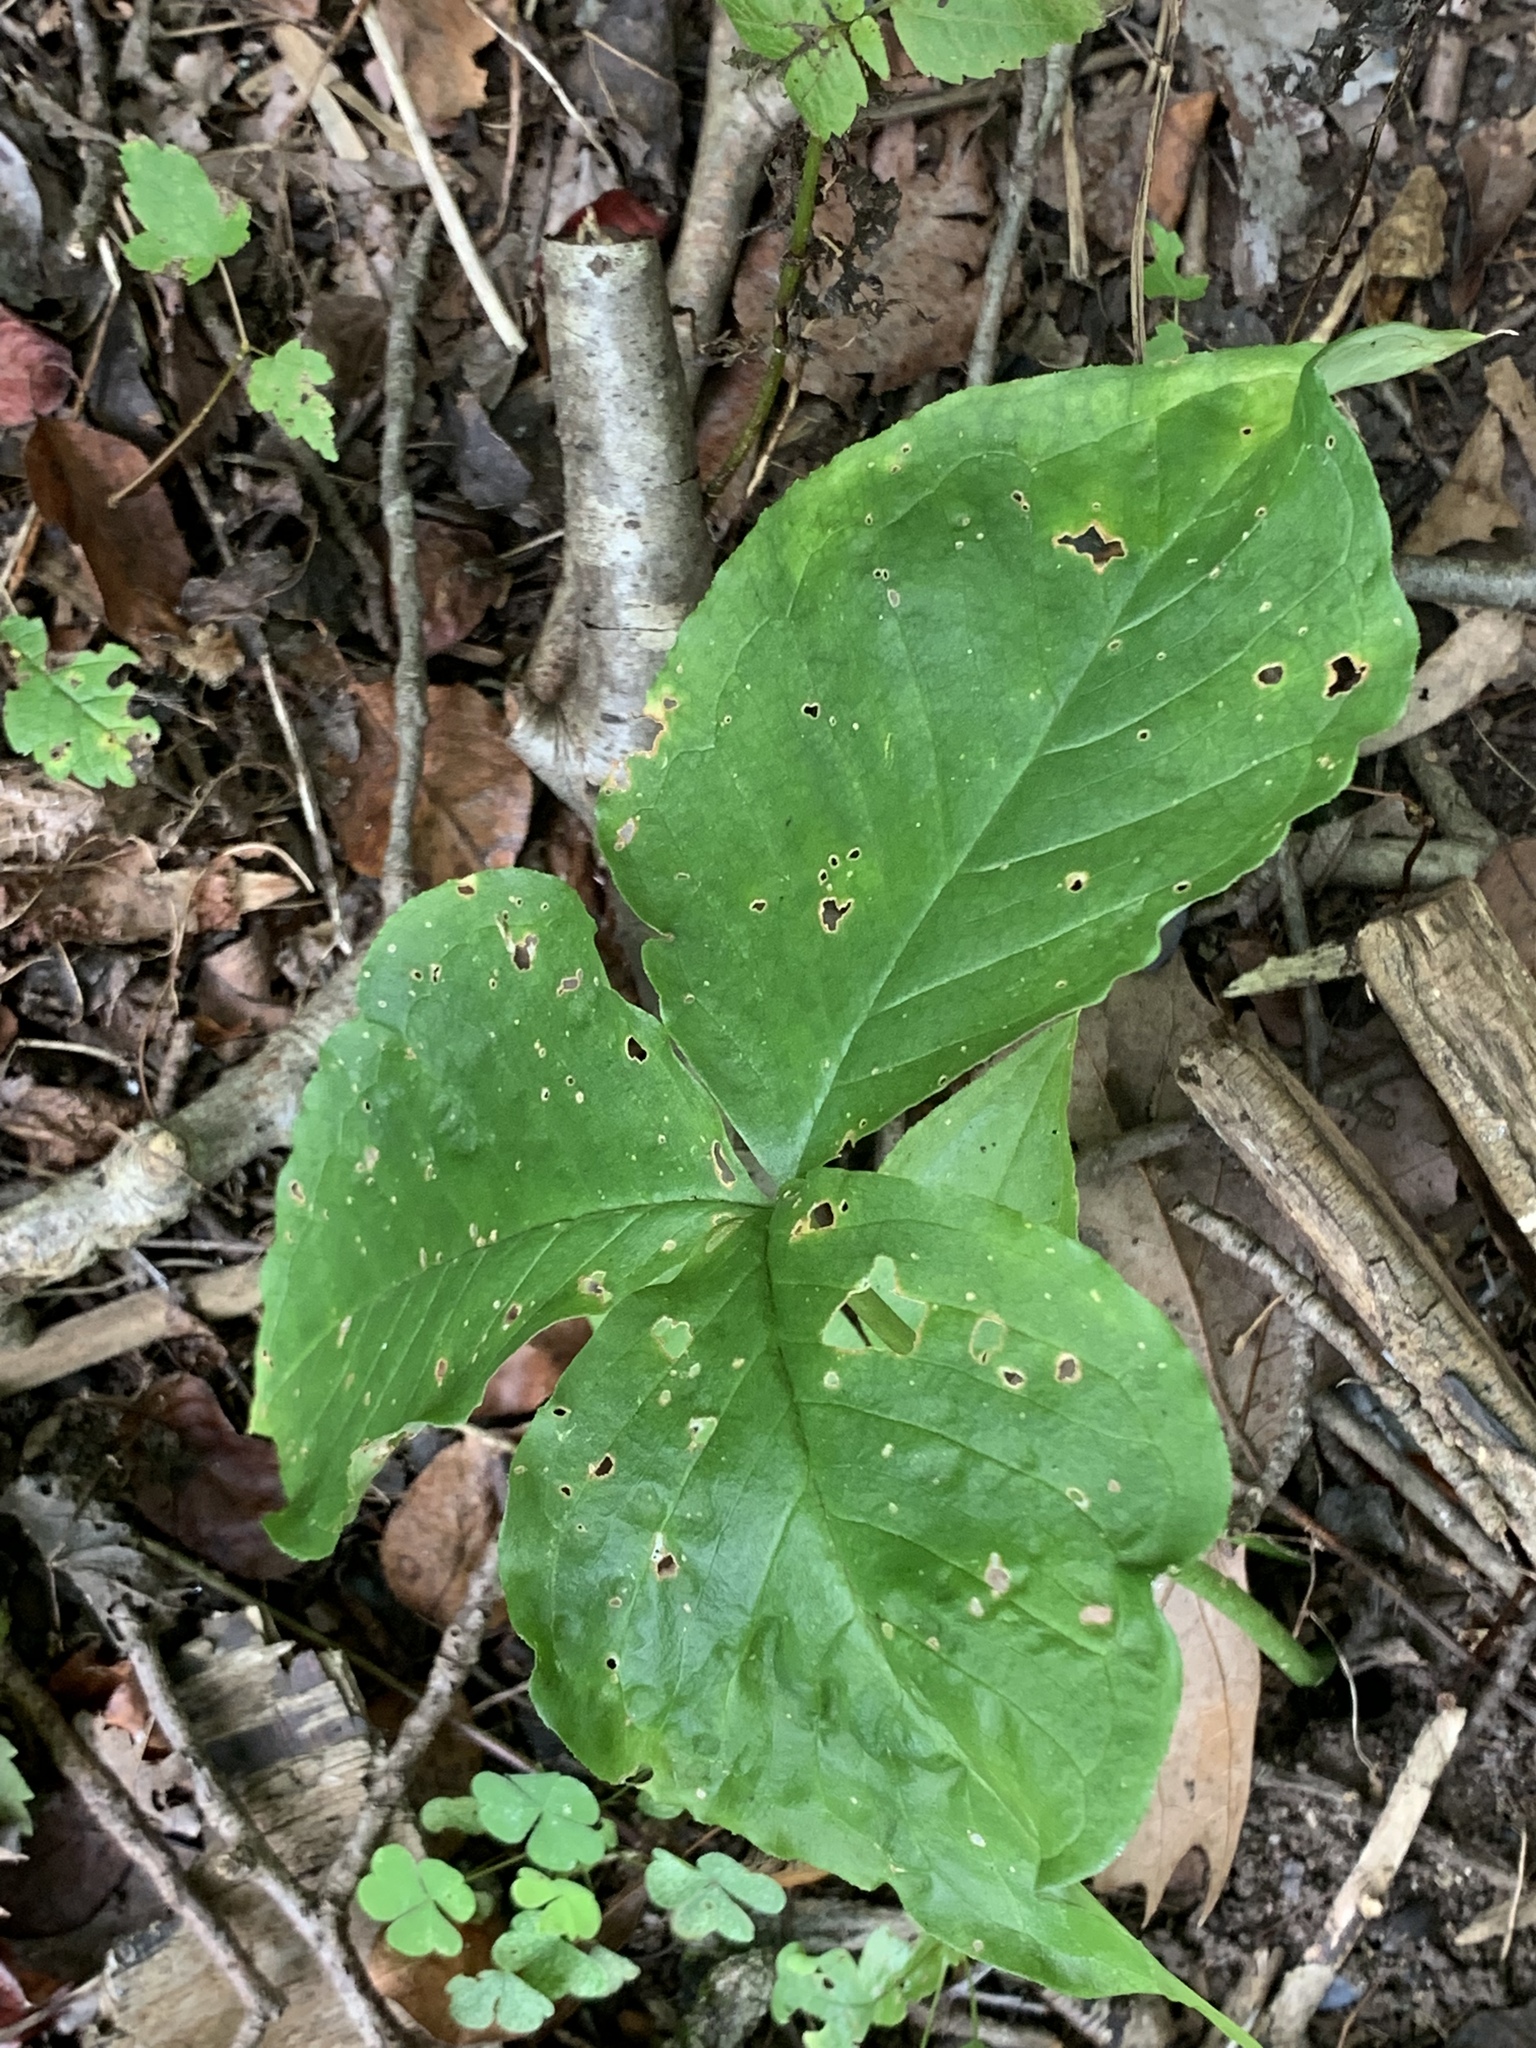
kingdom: Plantae
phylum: Tracheophyta
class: Liliopsida
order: Alismatales
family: Araceae
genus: Arisaema
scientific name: Arisaema triphyllum
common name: Jack-in-the-pulpit
